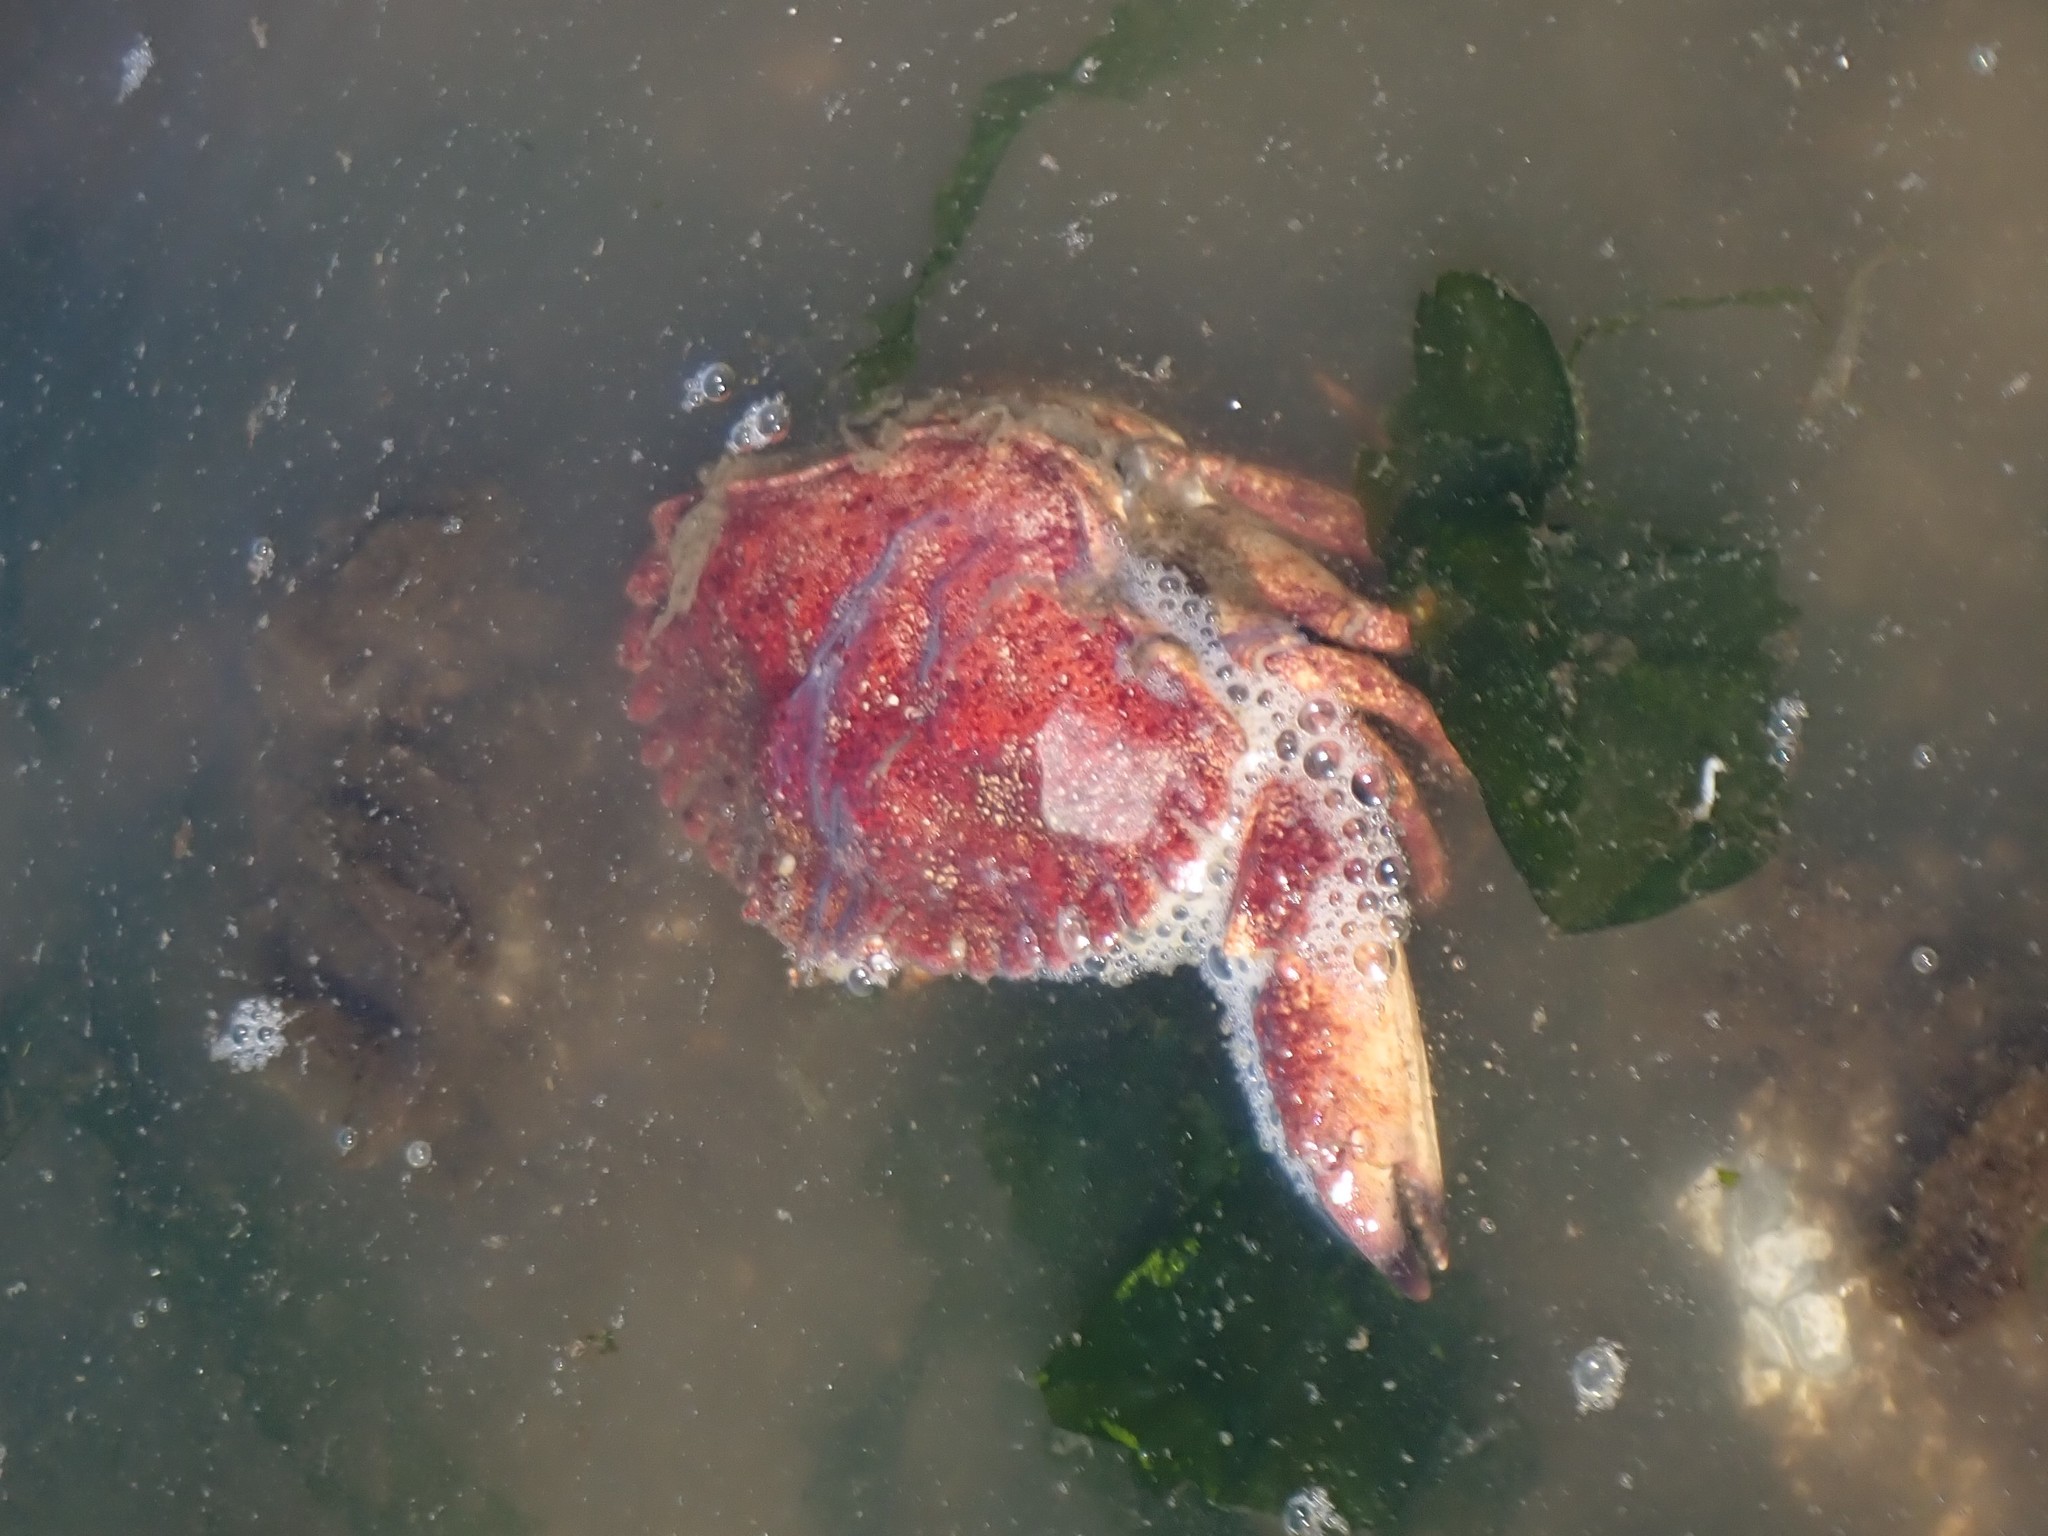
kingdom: Animalia
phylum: Arthropoda
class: Malacostraca
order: Decapoda
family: Cancridae
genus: Cancer
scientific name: Cancer productus
